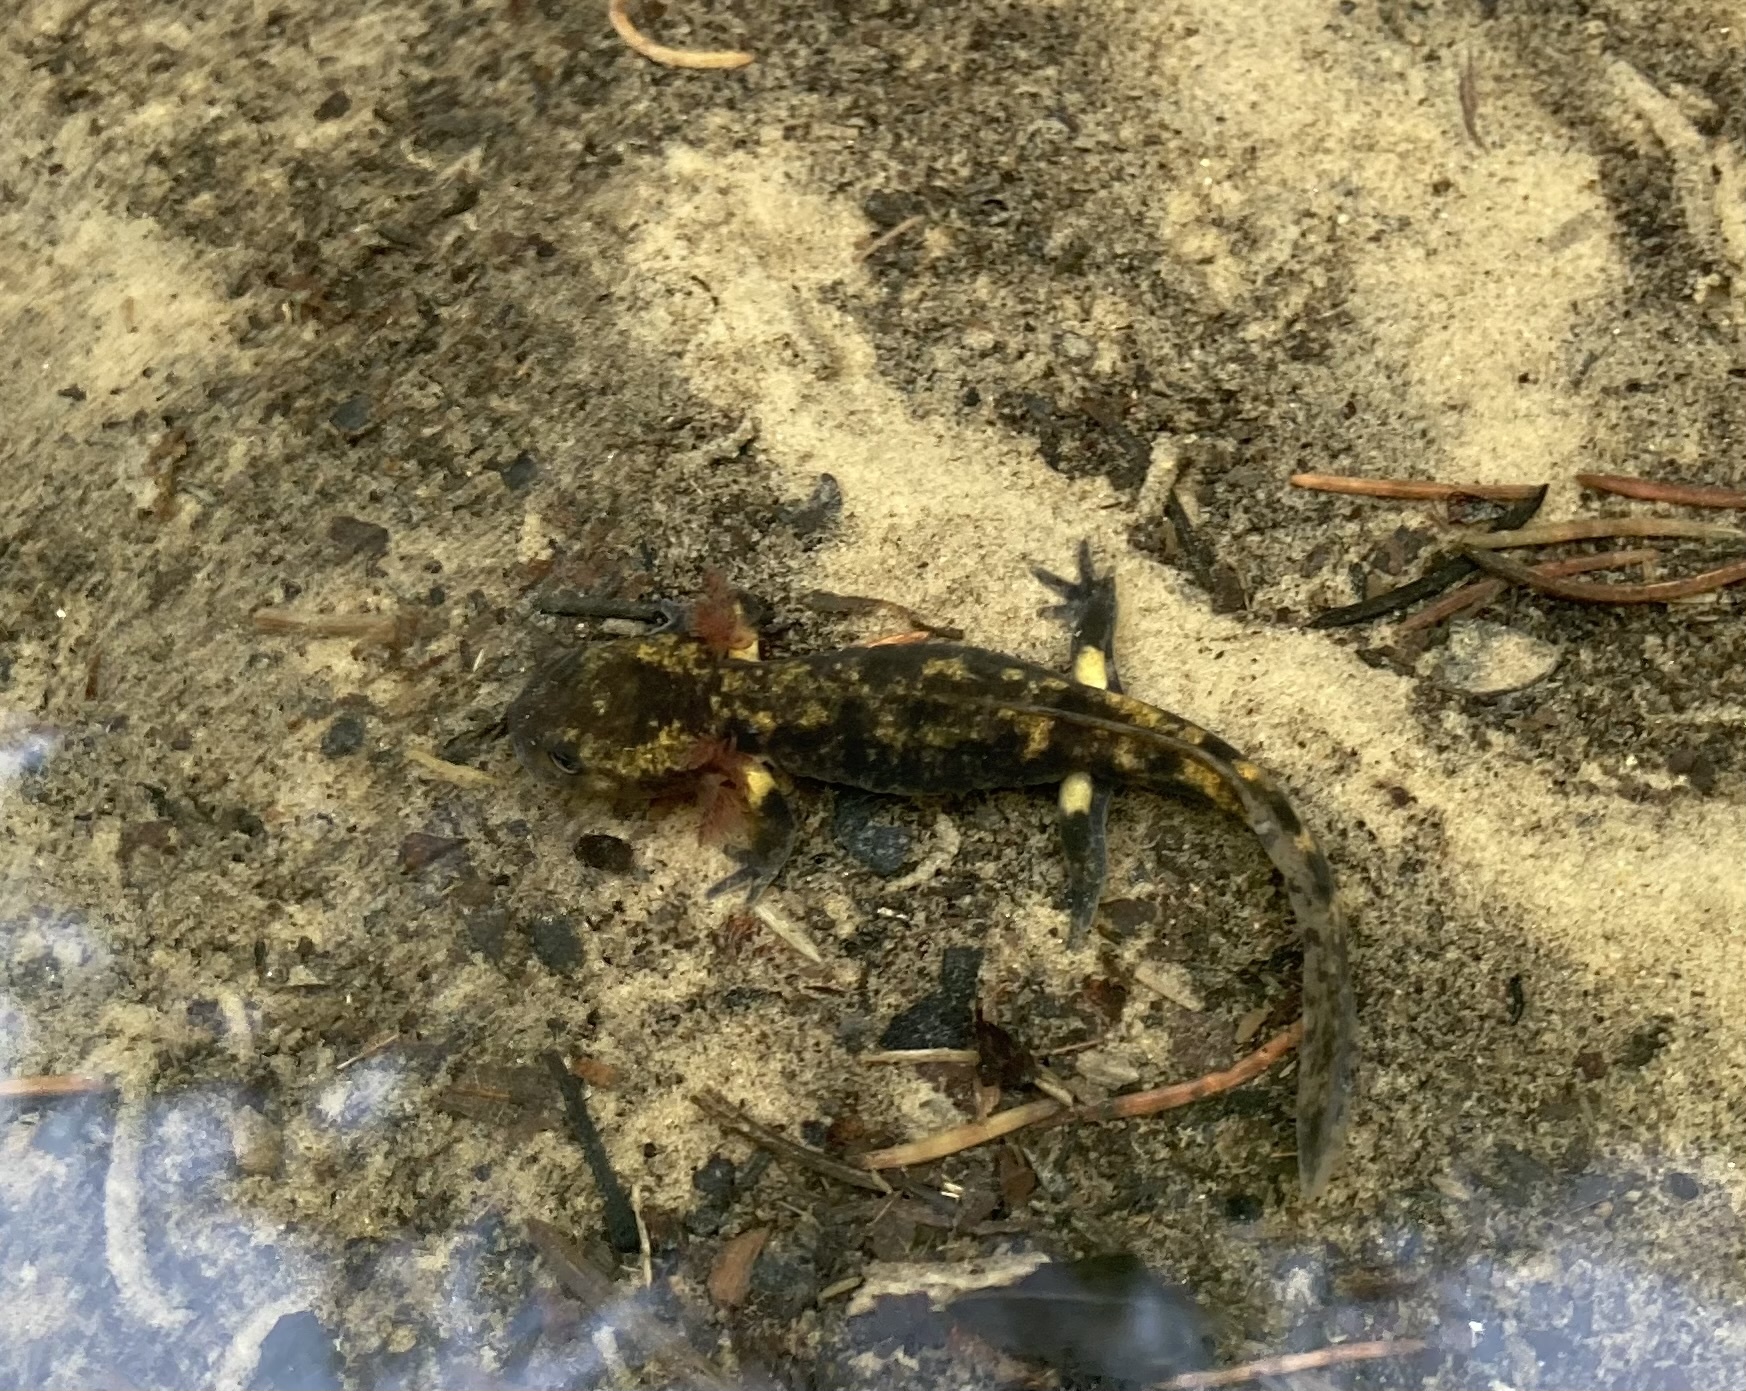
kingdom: Animalia
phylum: Chordata
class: Amphibia
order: Caudata
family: Salamandridae
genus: Salamandra
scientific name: Salamandra salamandra
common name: Fire salamander
